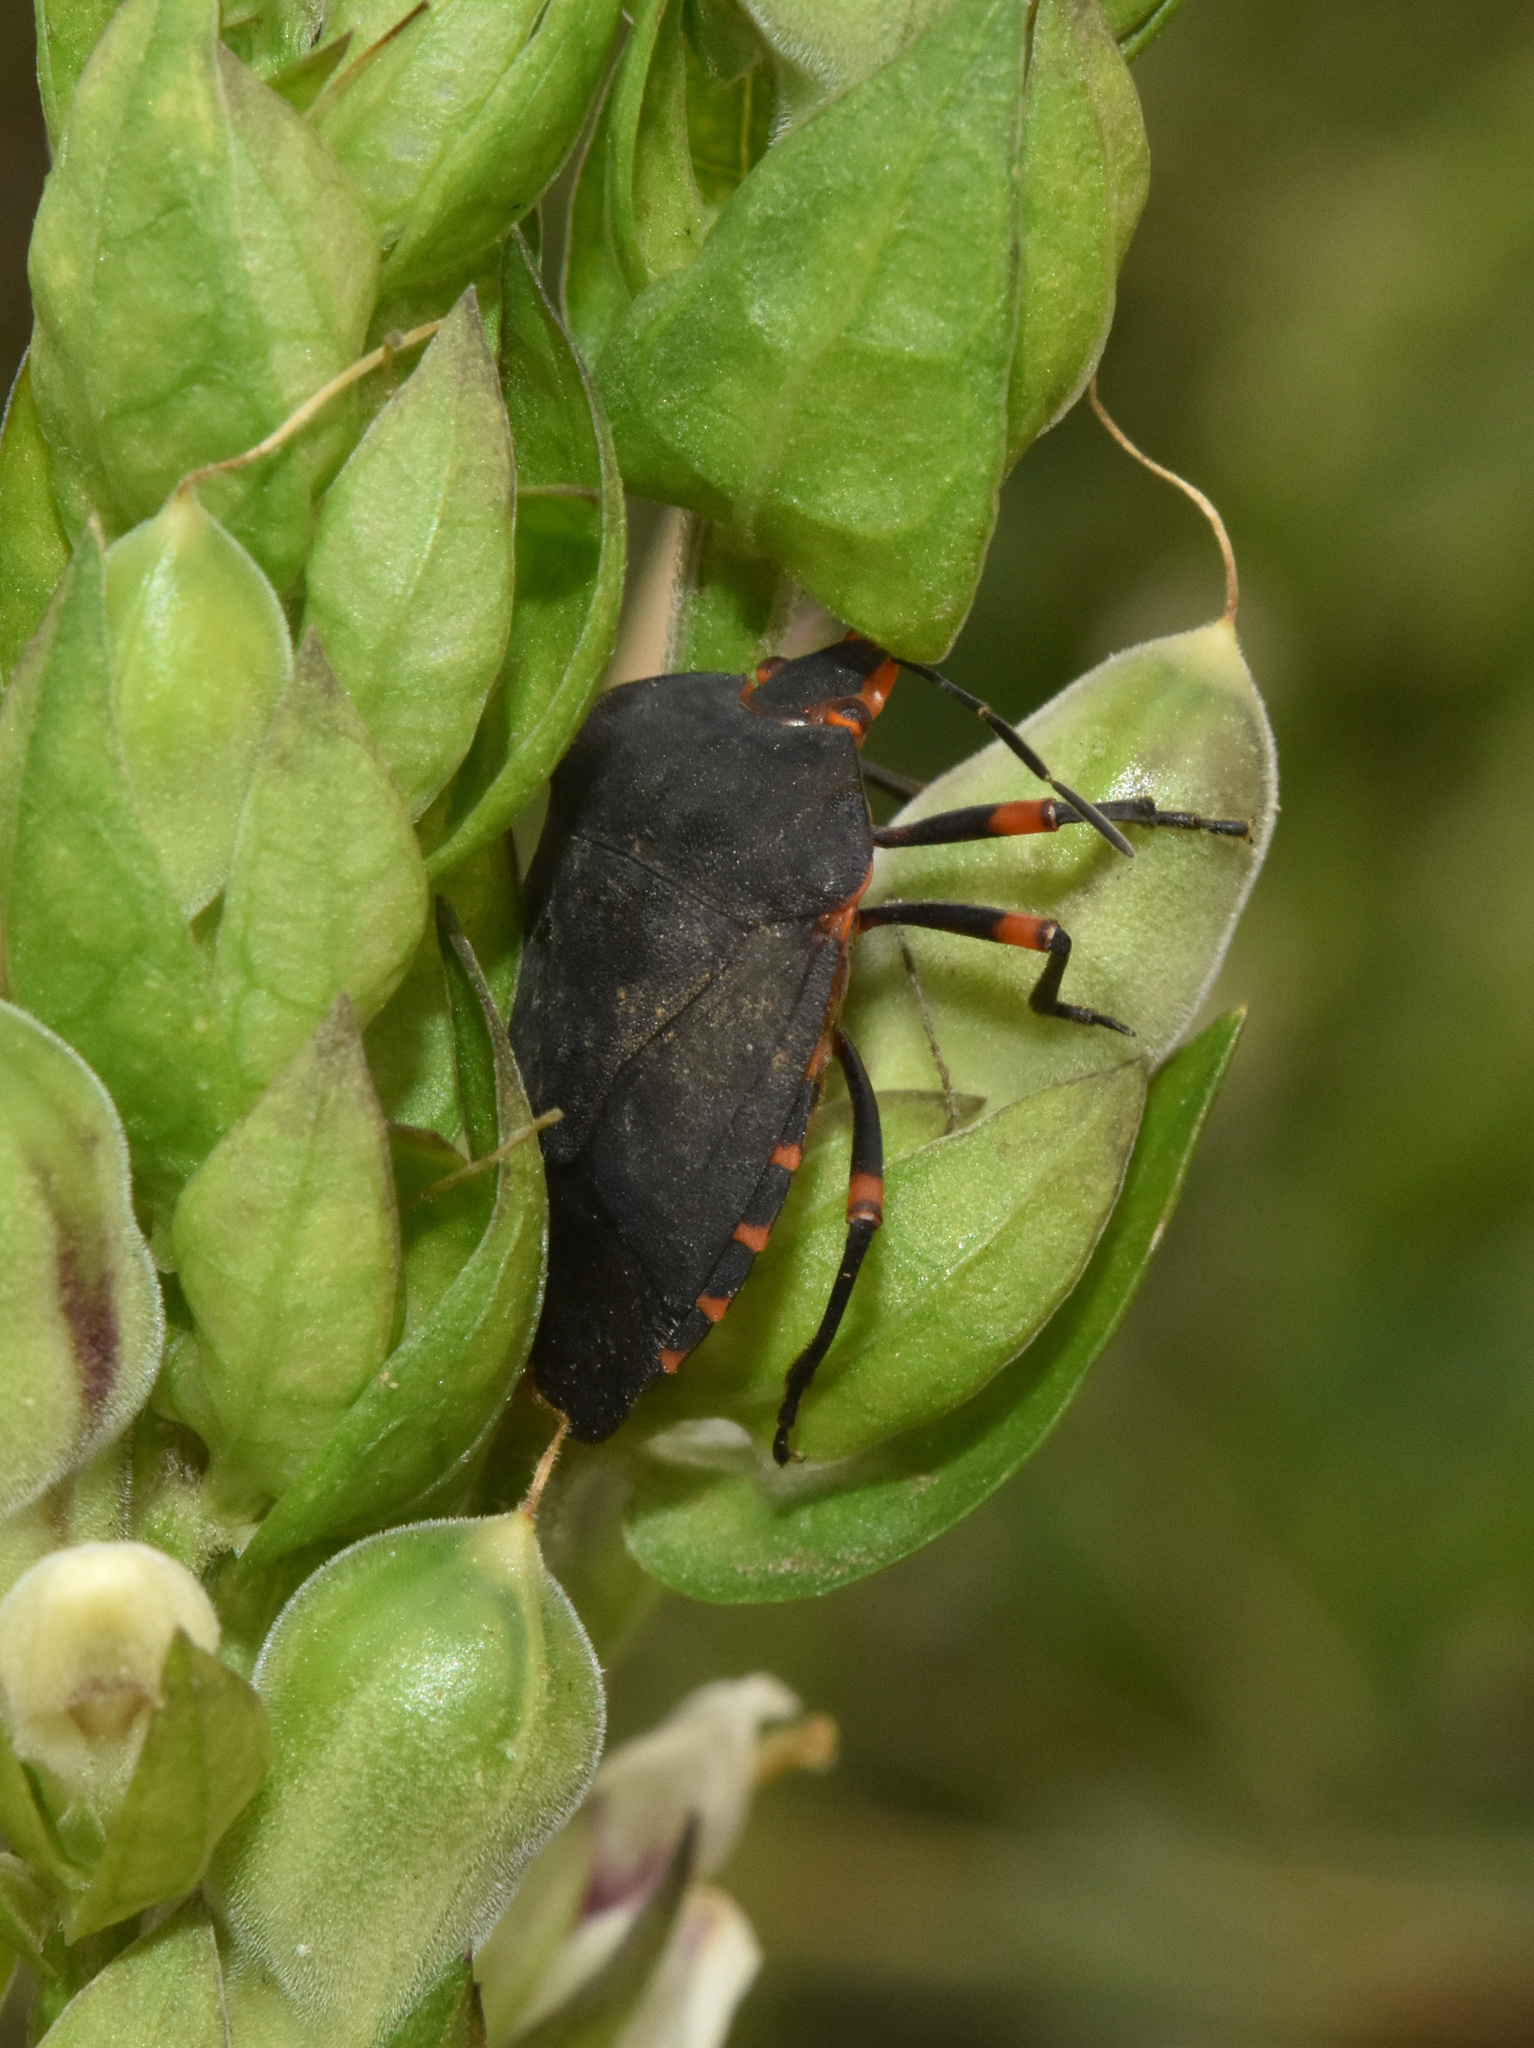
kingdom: Animalia
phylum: Arthropoda
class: Insecta
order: Hemiptera
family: Pentatomidae
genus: Caura
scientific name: Caura rufiventris
